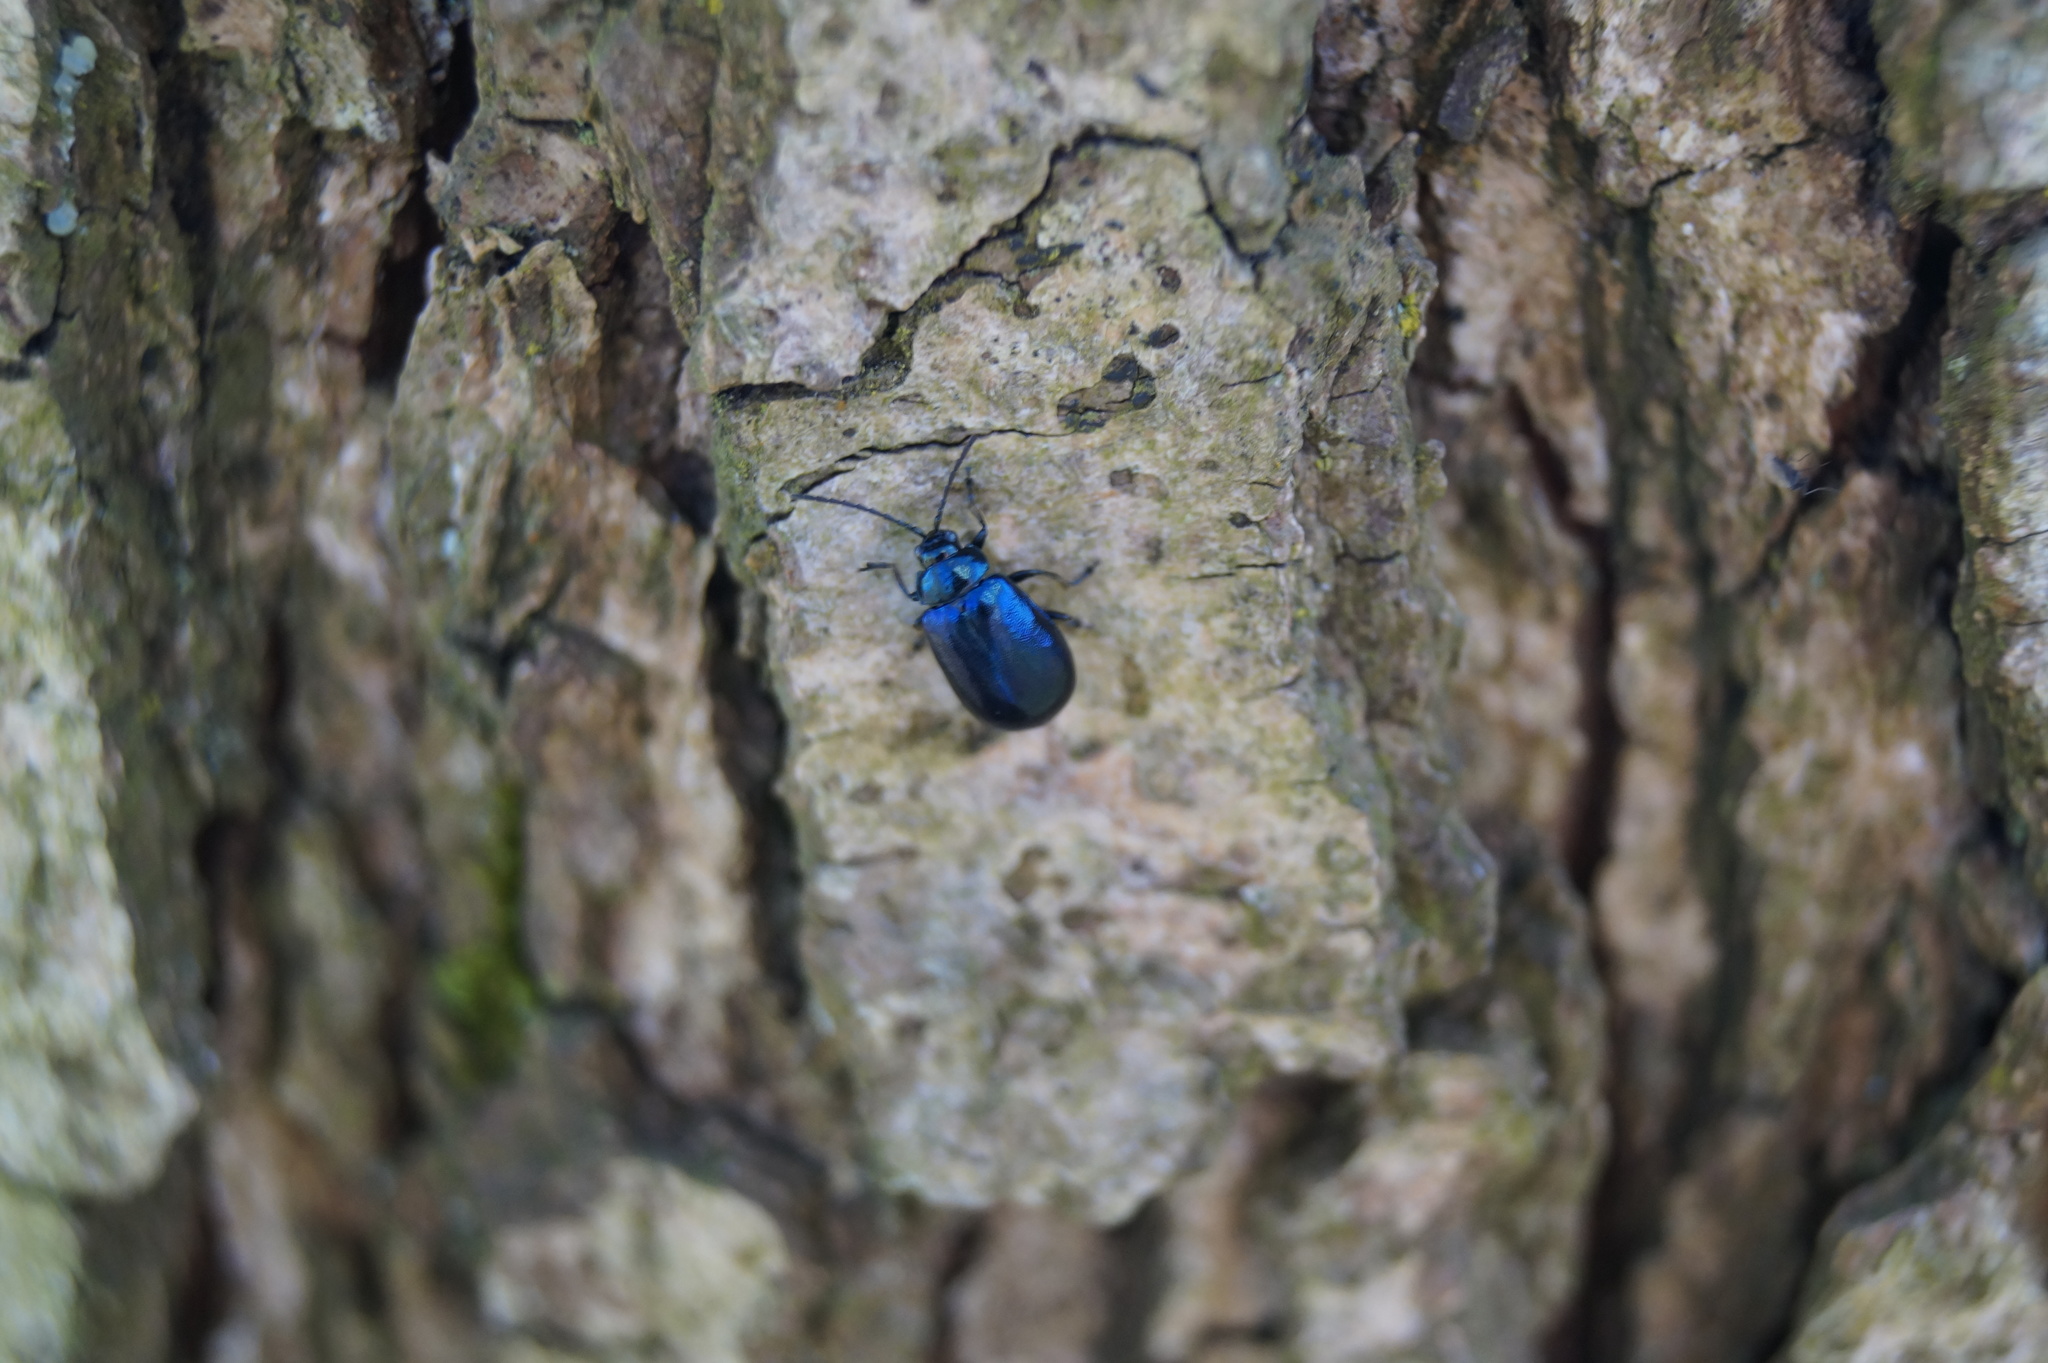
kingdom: Animalia
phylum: Arthropoda
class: Insecta
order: Coleoptera
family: Chrysomelidae
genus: Agelastica
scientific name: Agelastica alni
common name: Alder leaf beetle
